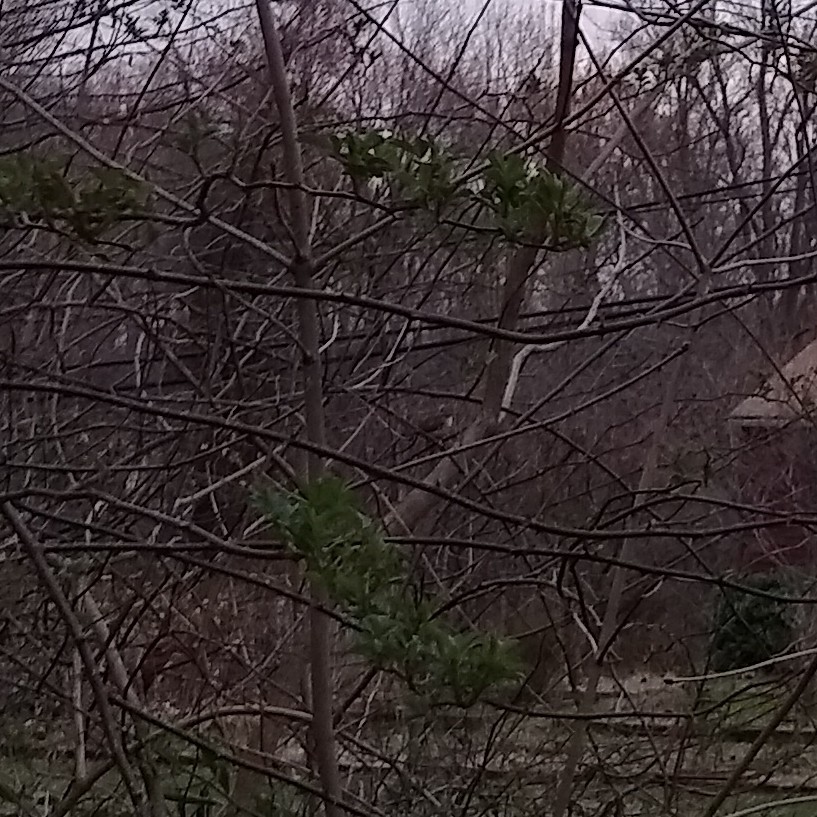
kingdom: Animalia
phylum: Chordata
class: Aves
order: Passeriformes
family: Troglodytidae
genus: Thryothorus
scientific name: Thryothorus ludovicianus
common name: Carolina wren
